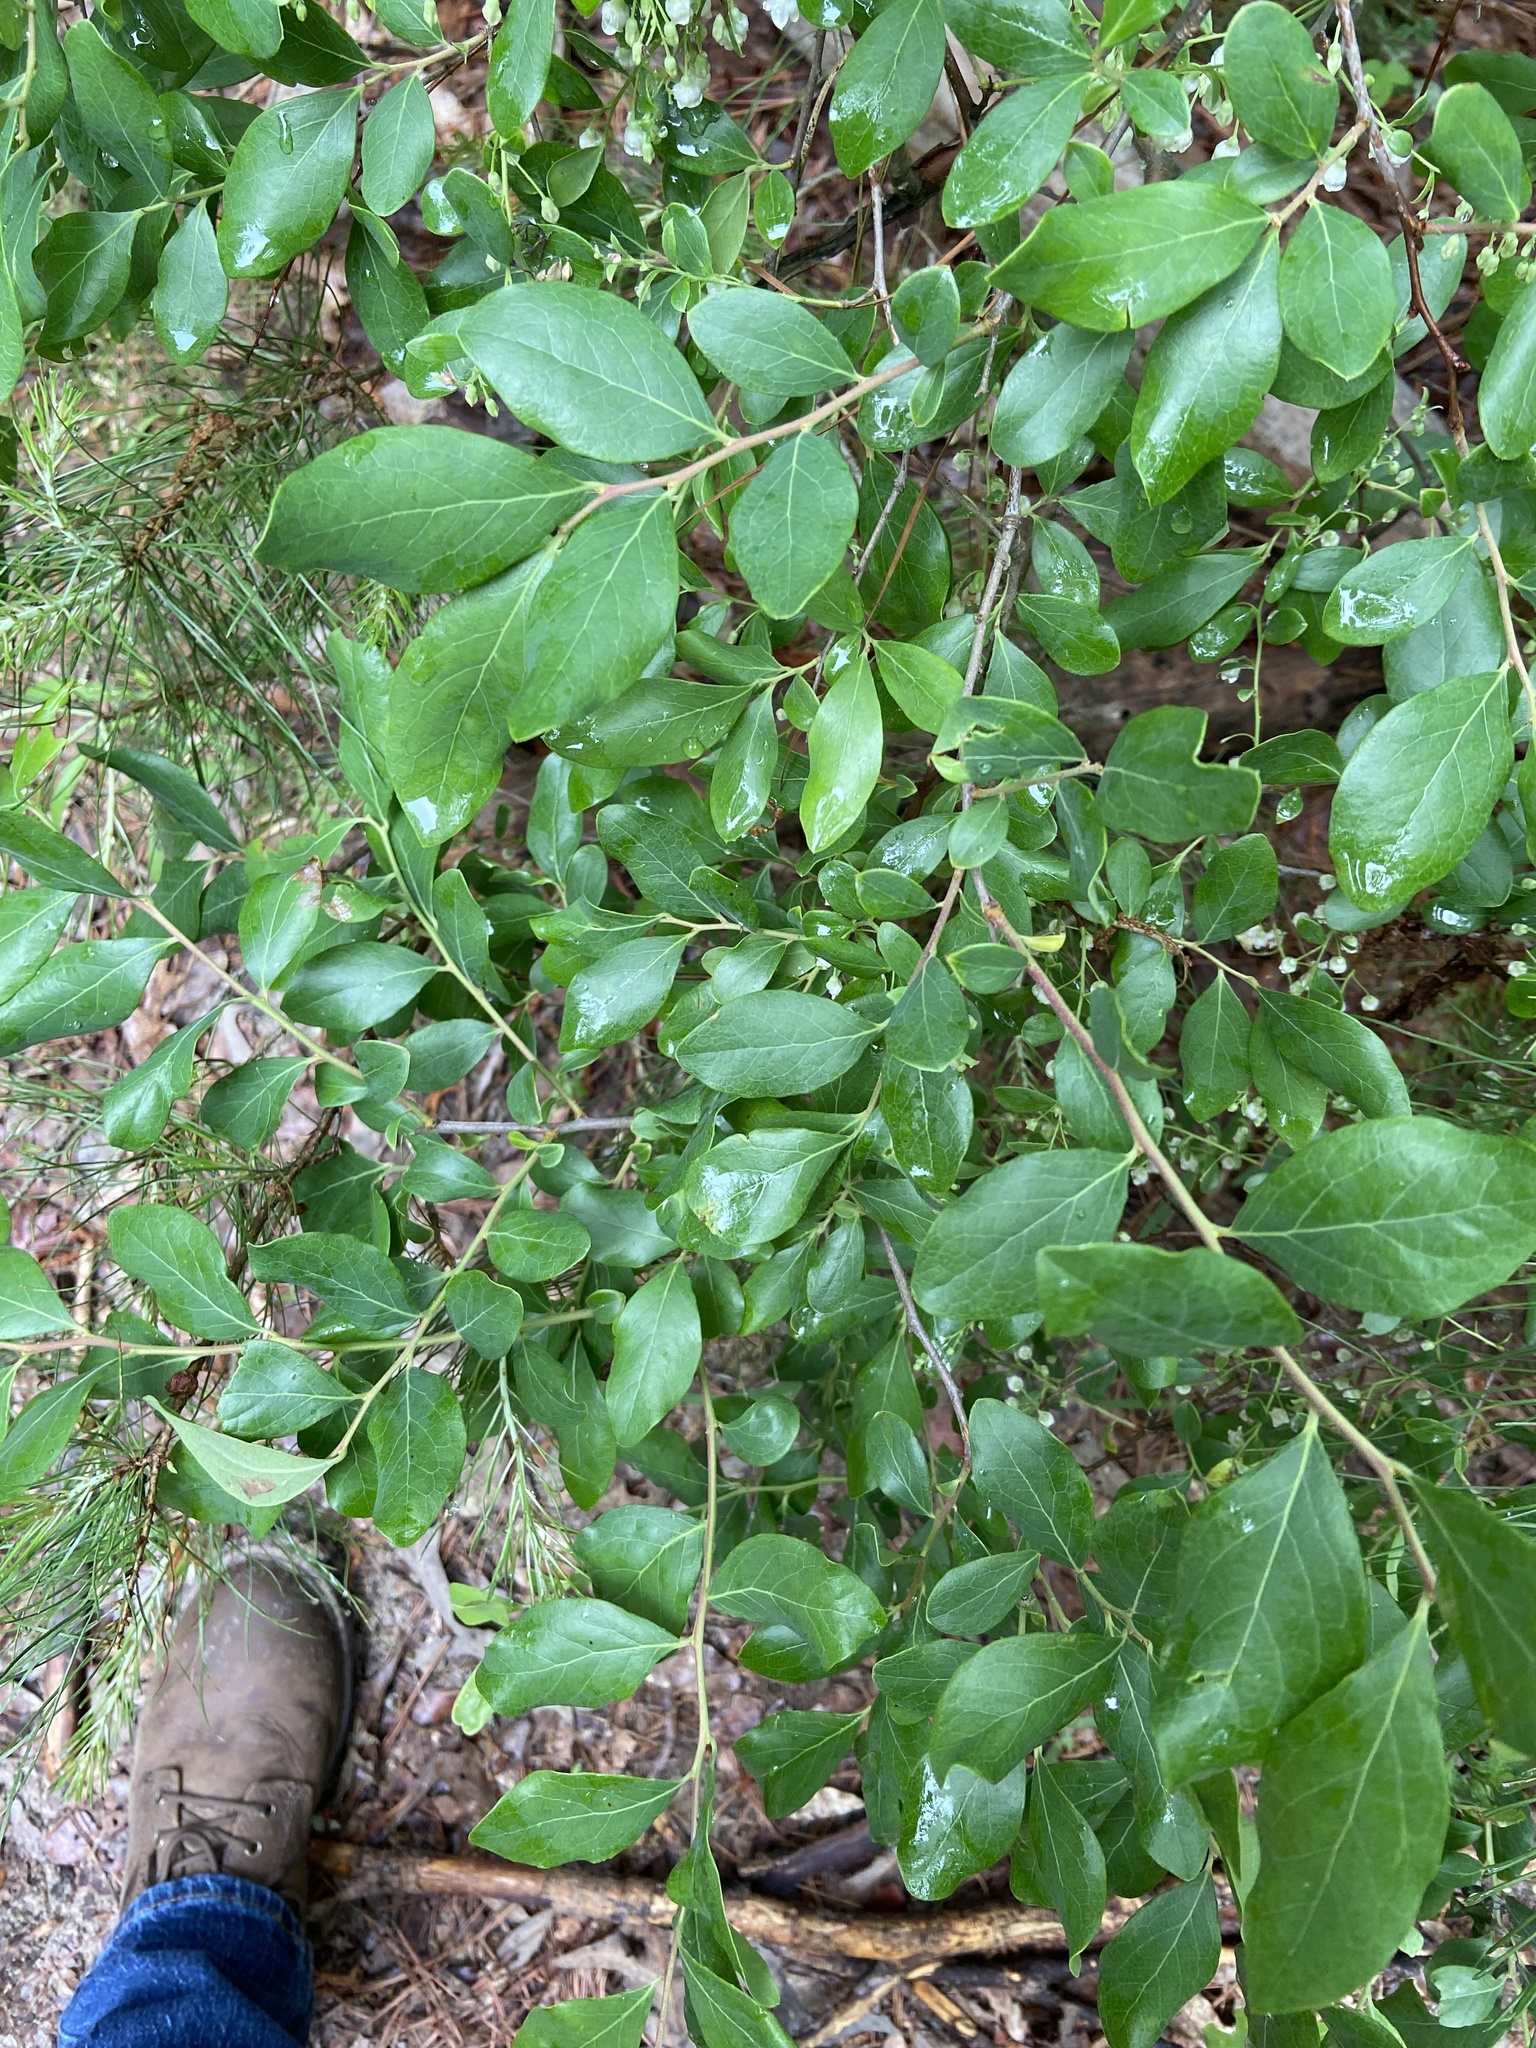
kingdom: Plantae
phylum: Tracheophyta
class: Magnoliopsida
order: Ericales
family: Ericaceae
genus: Vaccinium
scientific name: Vaccinium arboreum
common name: Farkleberry
